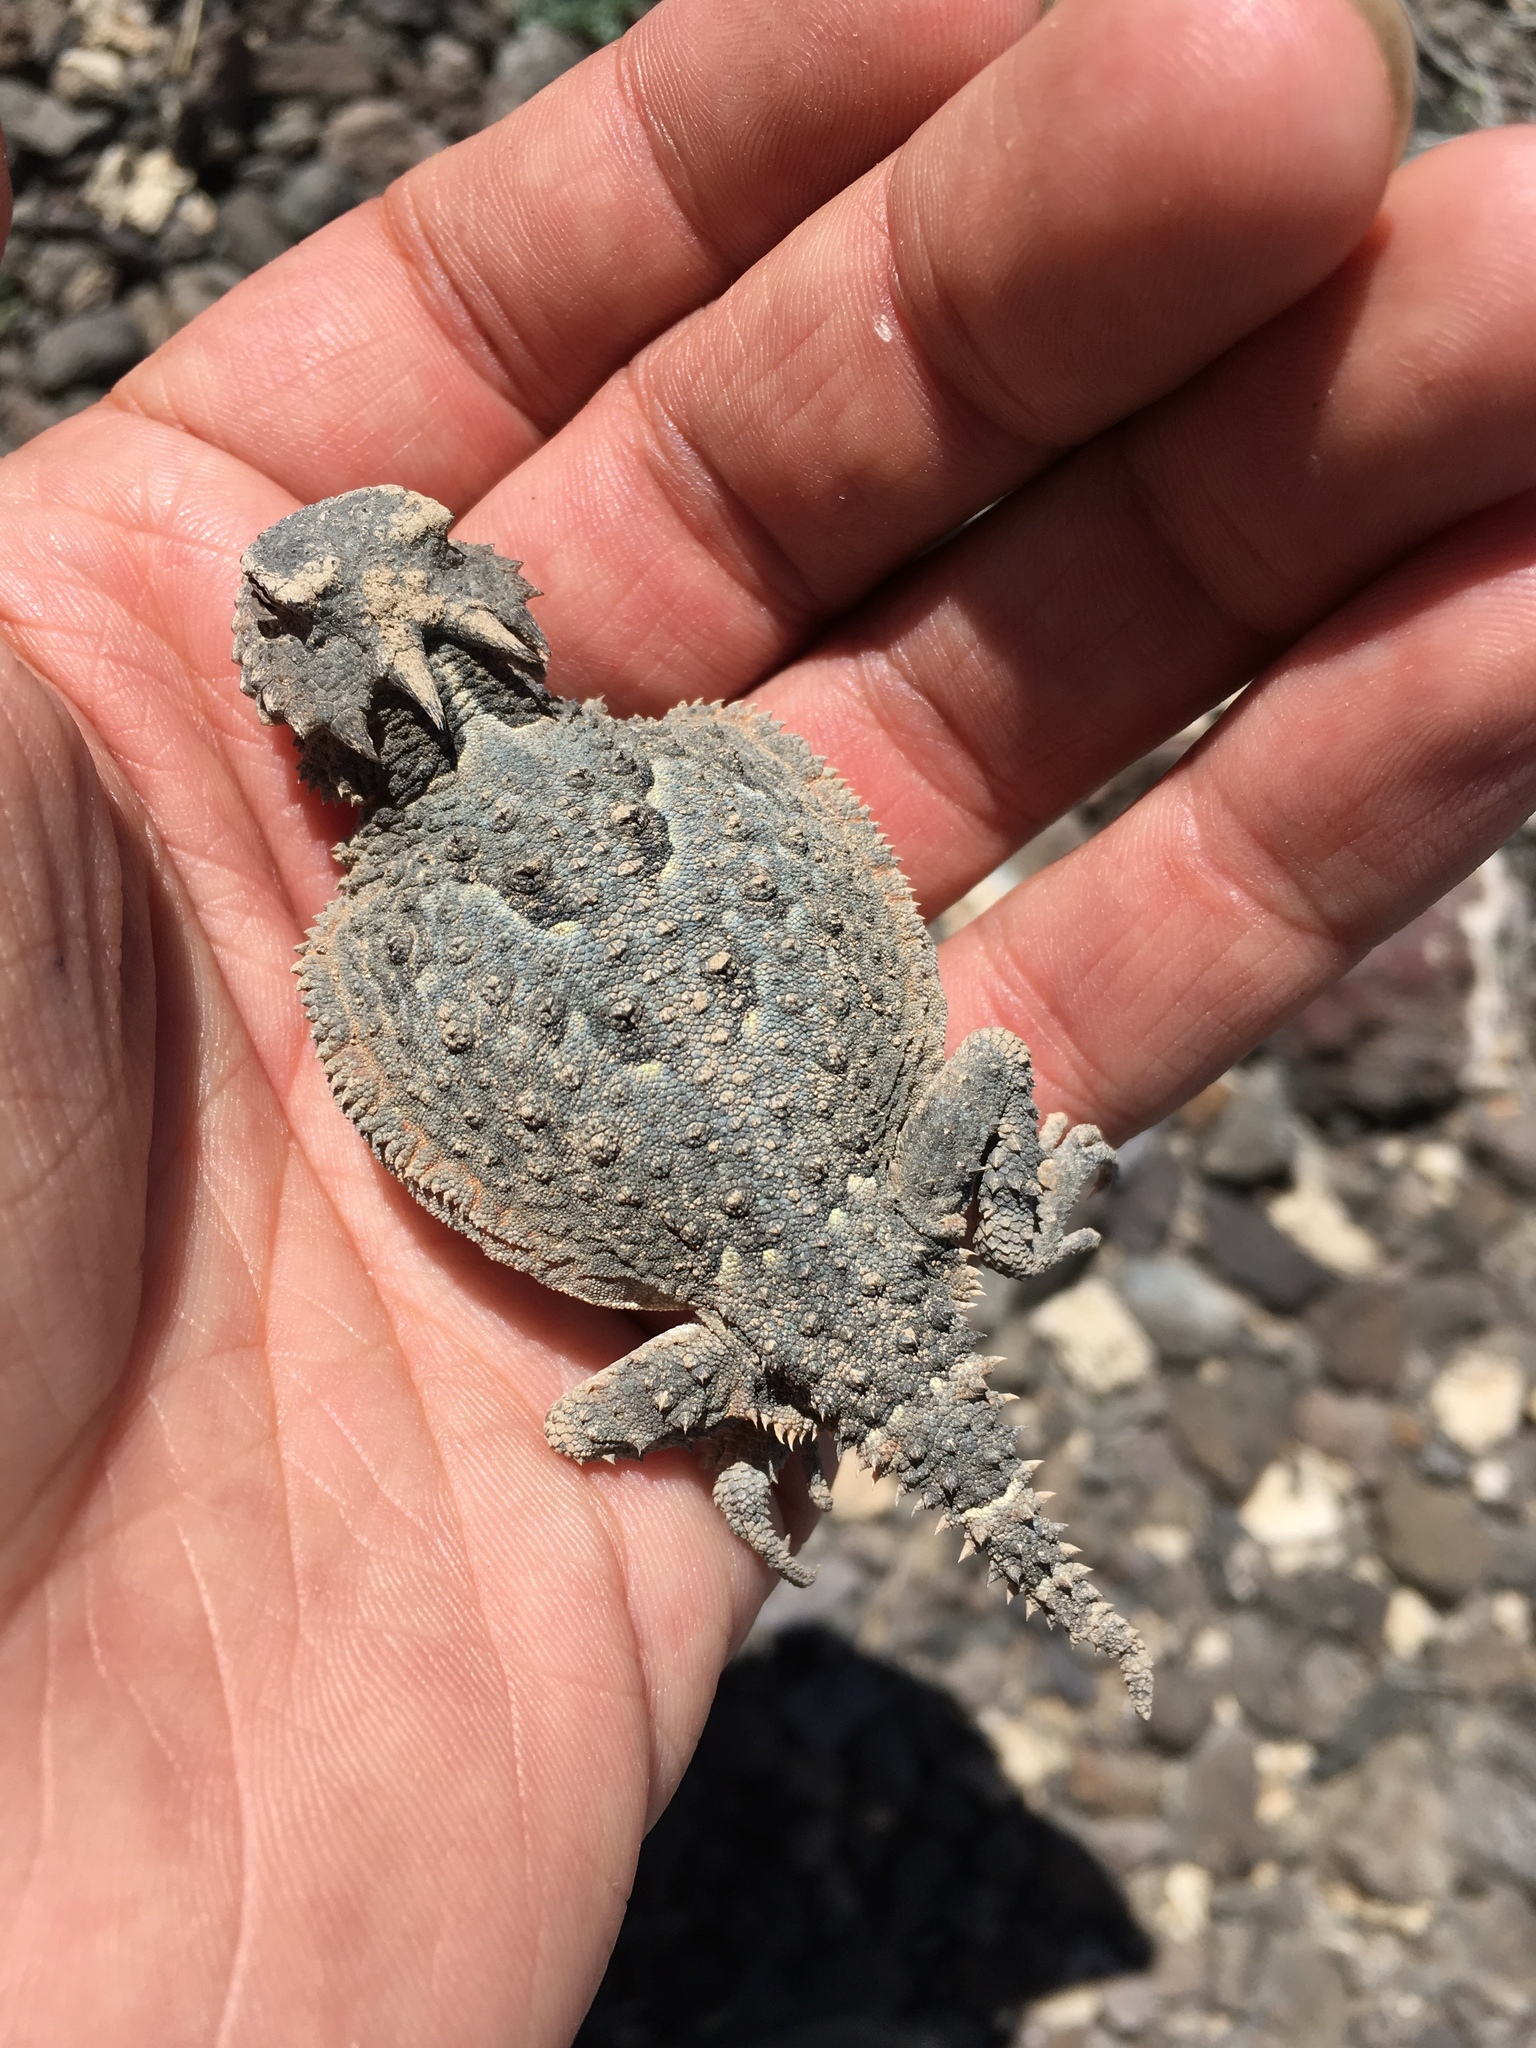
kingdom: Animalia
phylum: Chordata
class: Squamata
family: Phrynosomatidae
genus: Phrynosoma
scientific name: Phrynosoma platyrhinos
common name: Desert horned lizard
